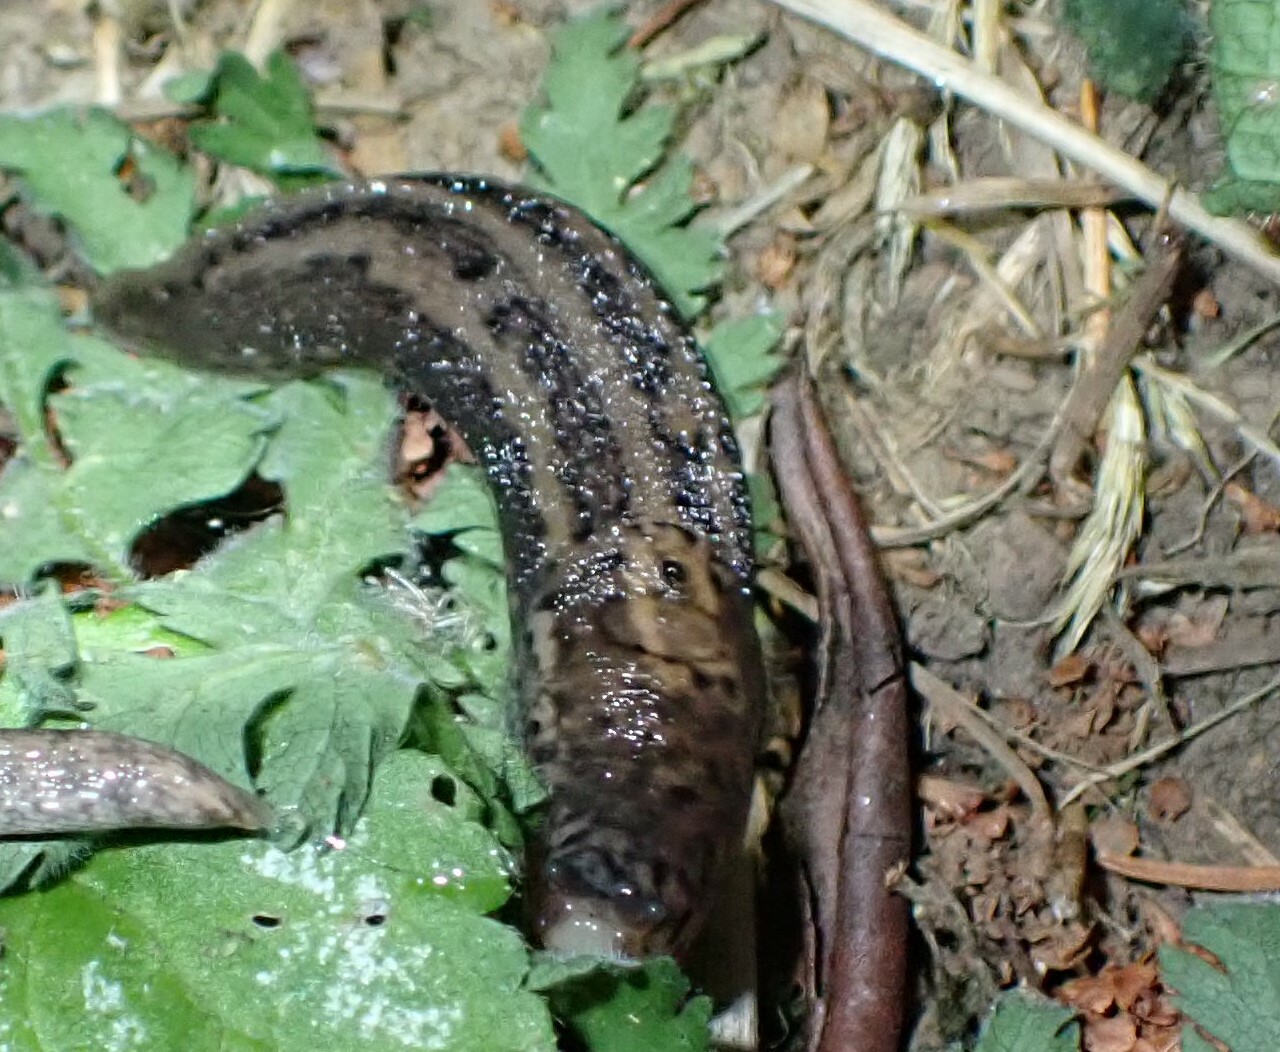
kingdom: Animalia
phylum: Mollusca
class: Gastropoda
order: Stylommatophora
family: Limacidae
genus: Limax
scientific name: Limax maximus
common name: Great grey slug
